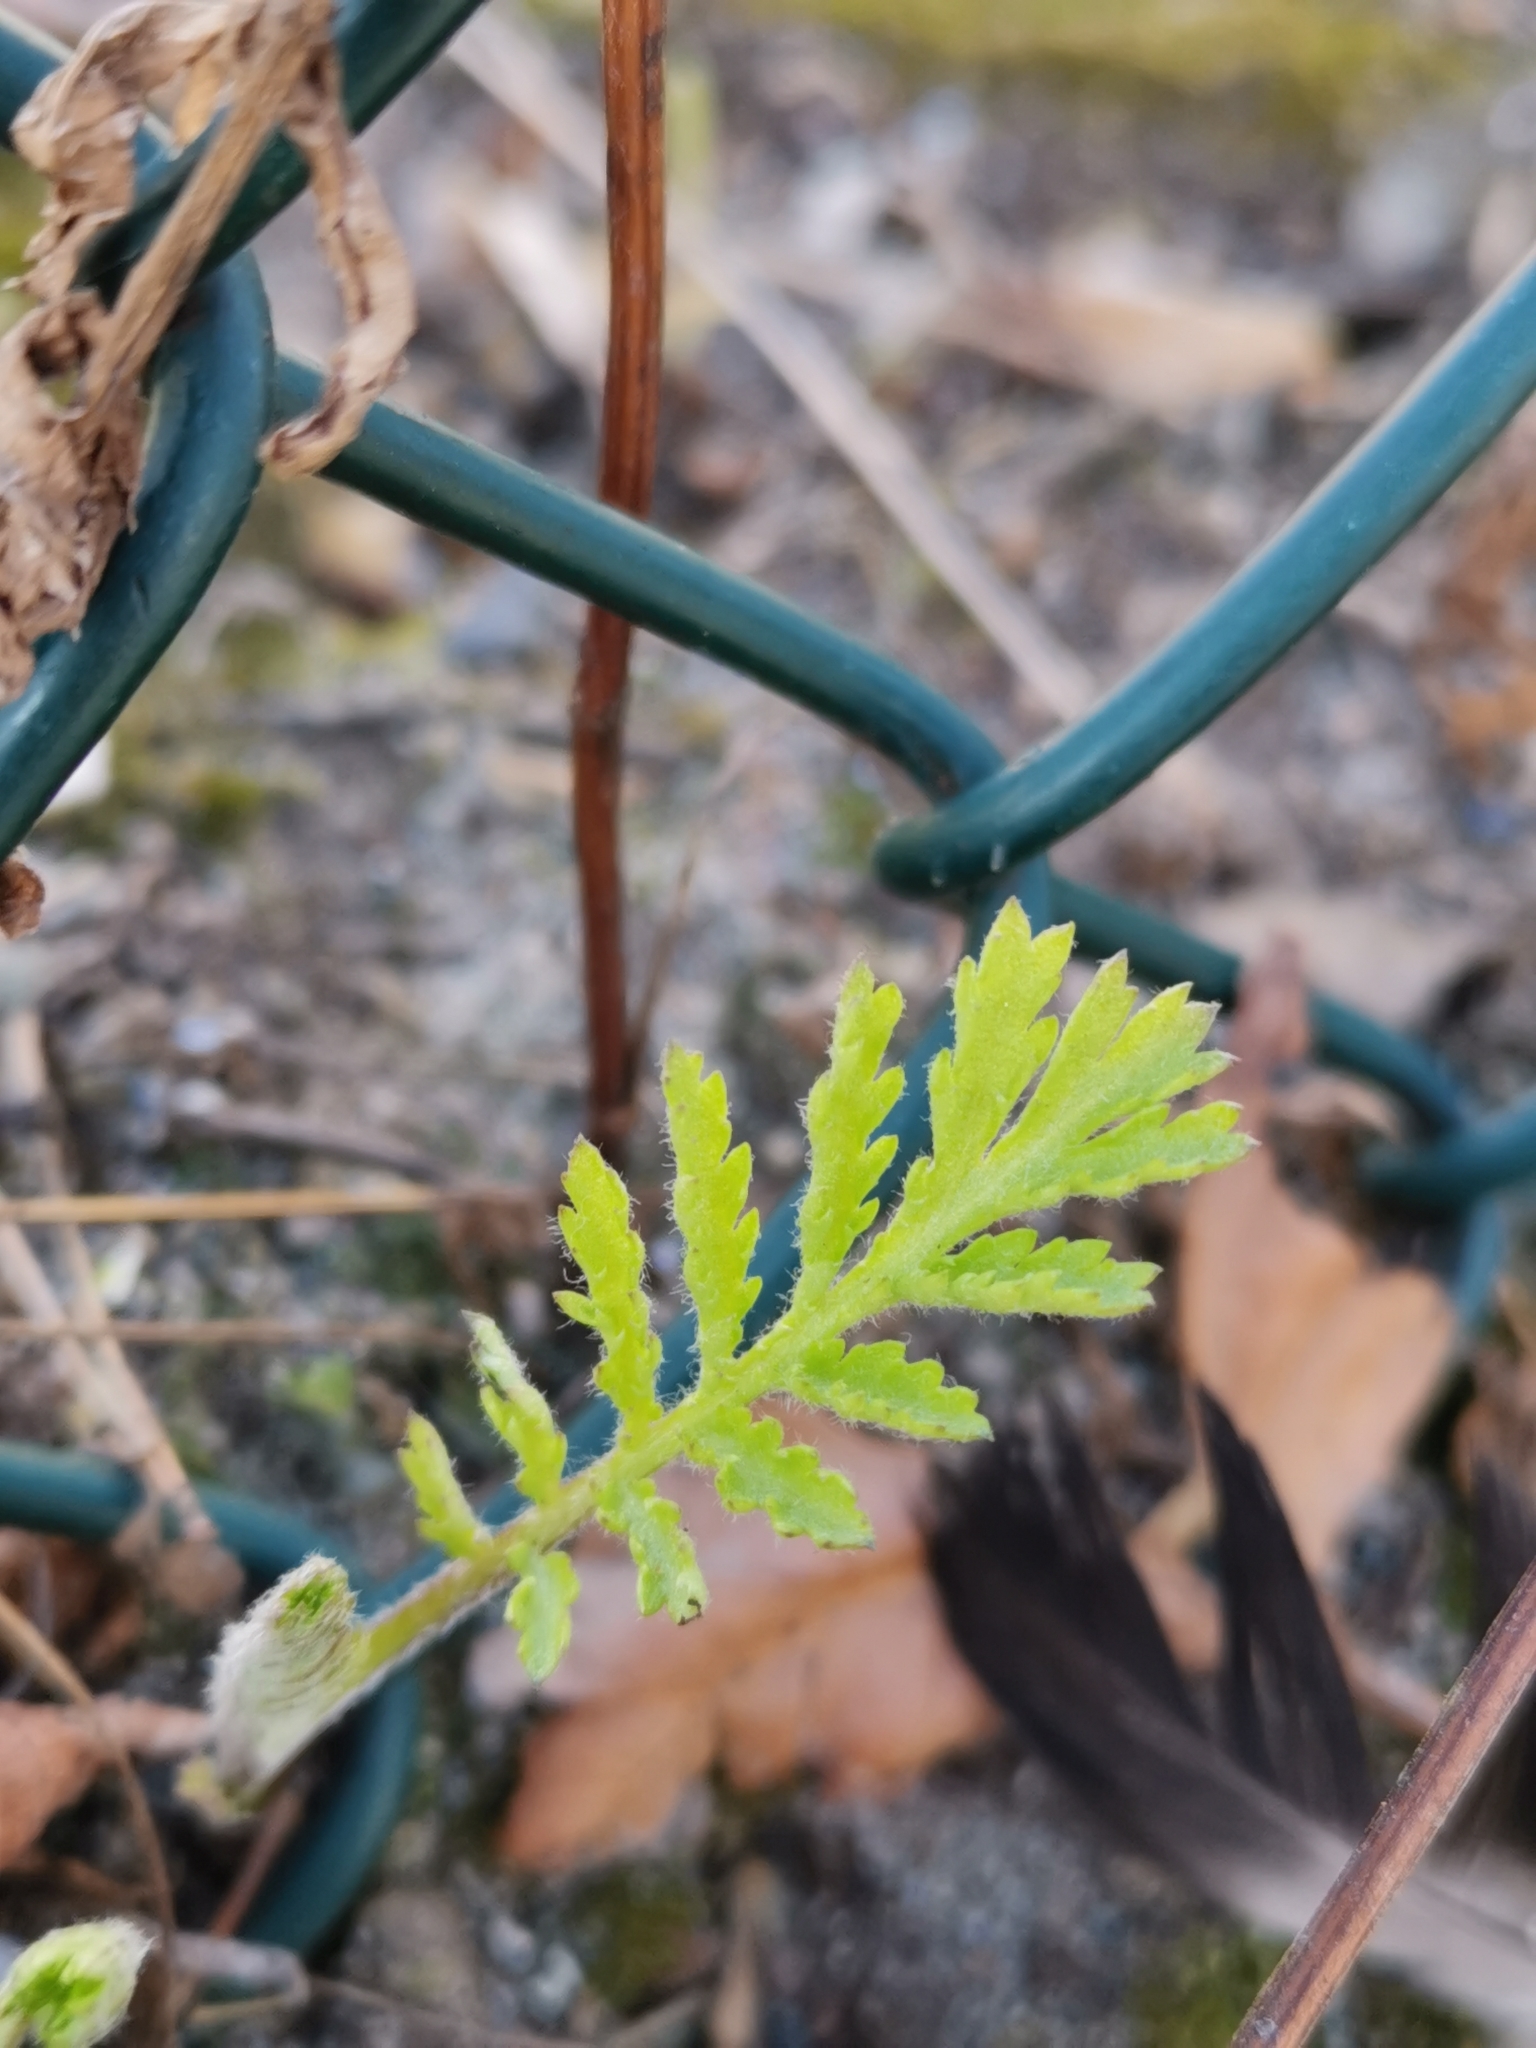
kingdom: Plantae
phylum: Tracheophyta
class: Magnoliopsida
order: Asterales
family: Asteraceae
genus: Tanacetum
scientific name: Tanacetum vulgare
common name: Common tansy
